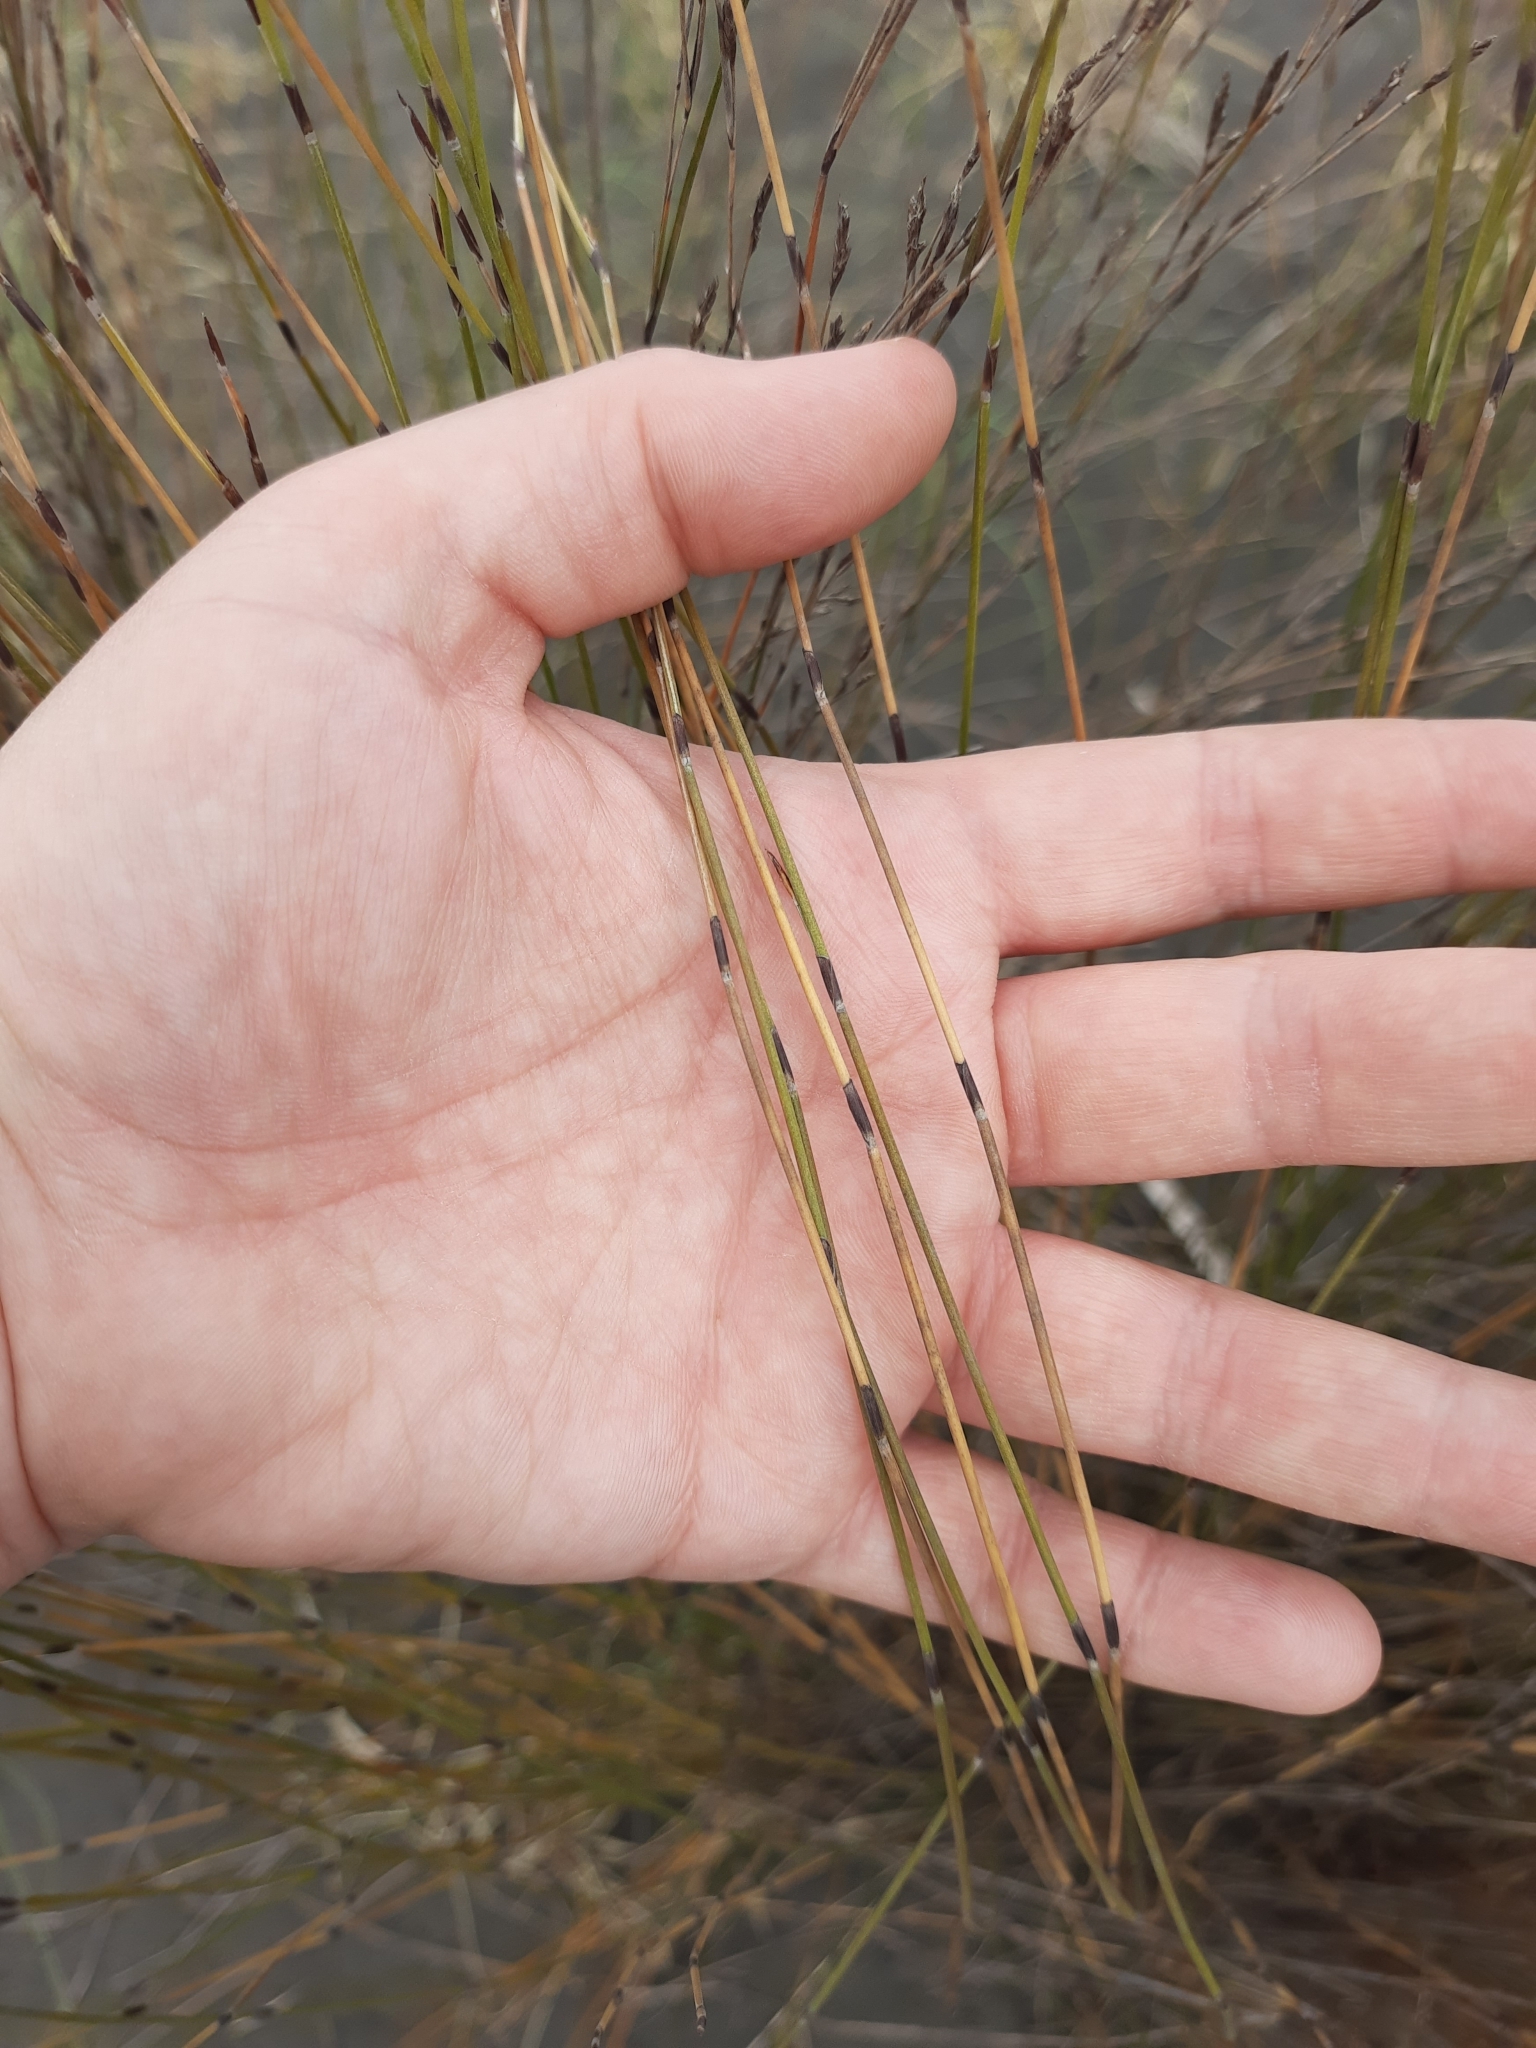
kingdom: Plantae
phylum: Tracheophyta
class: Liliopsida
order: Poales
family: Restionaceae
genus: Apodasmia
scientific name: Apodasmia similis
